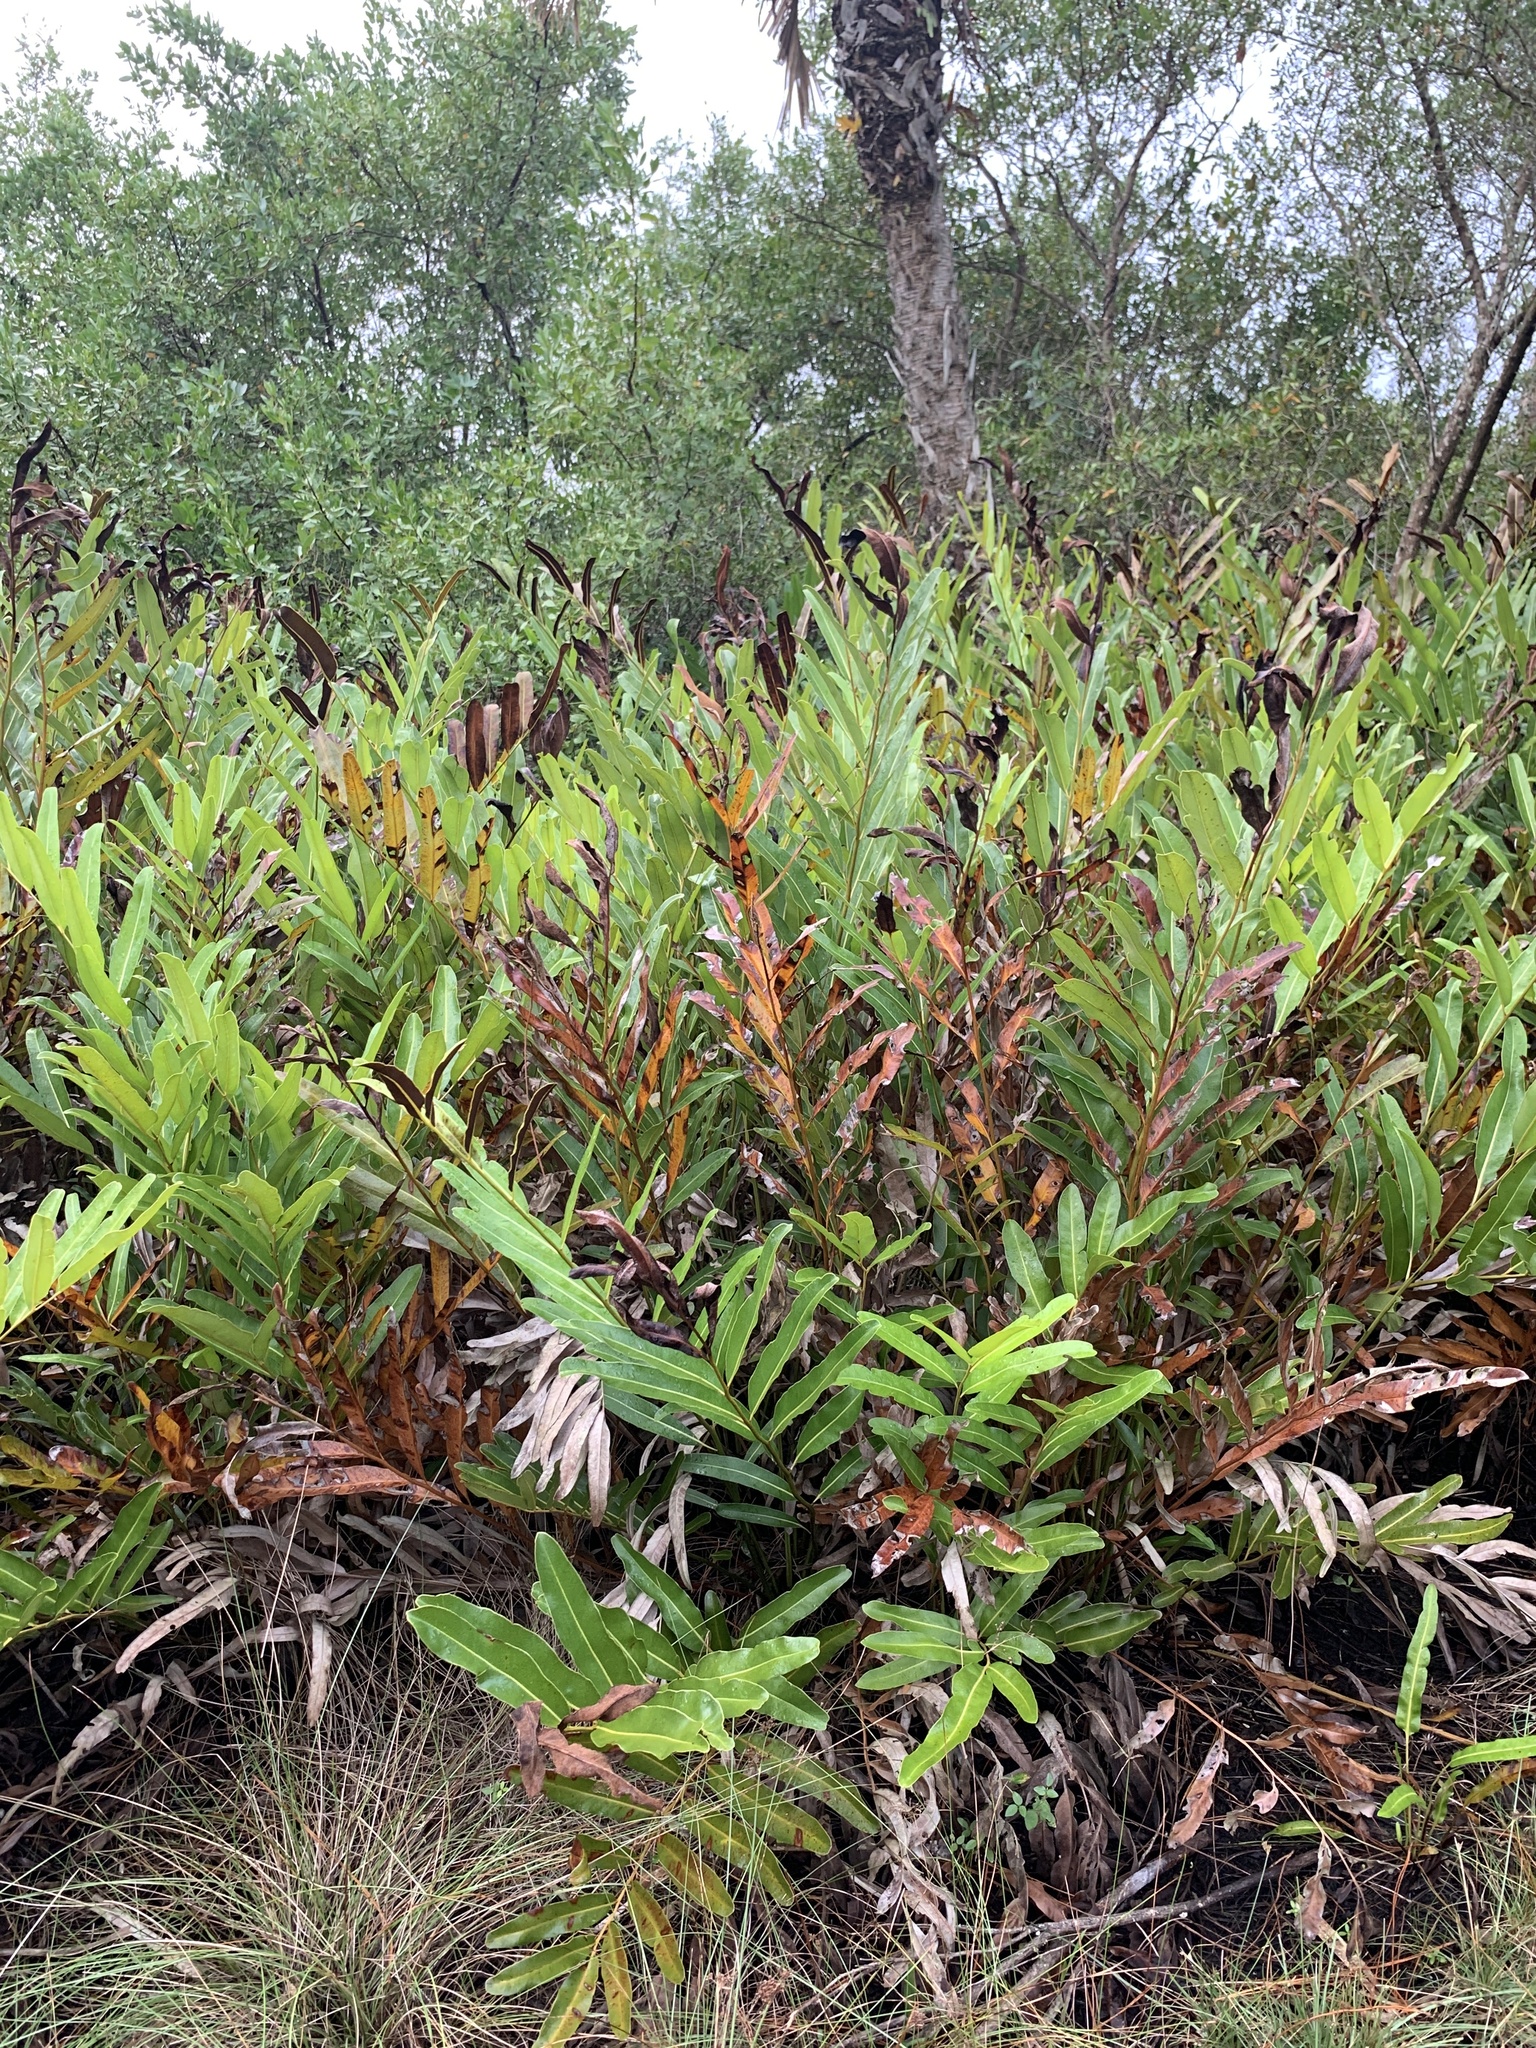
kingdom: Plantae
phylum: Tracheophyta
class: Polypodiopsida
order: Polypodiales
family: Pteridaceae
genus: Acrostichum
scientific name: Acrostichum aureum
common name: Leather fern
